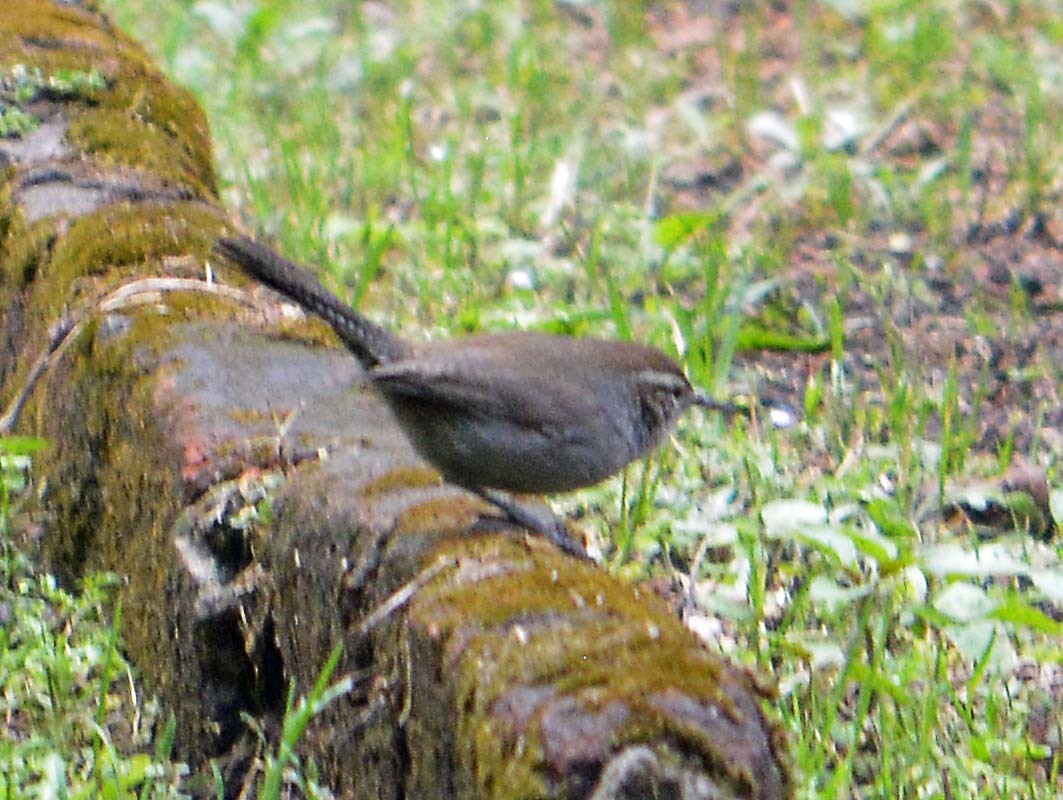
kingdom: Animalia
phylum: Chordata
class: Aves
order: Passeriformes
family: Troglodytidae
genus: Thryomanes
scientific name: Thryomanes bewickii
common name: Bewick's wren
